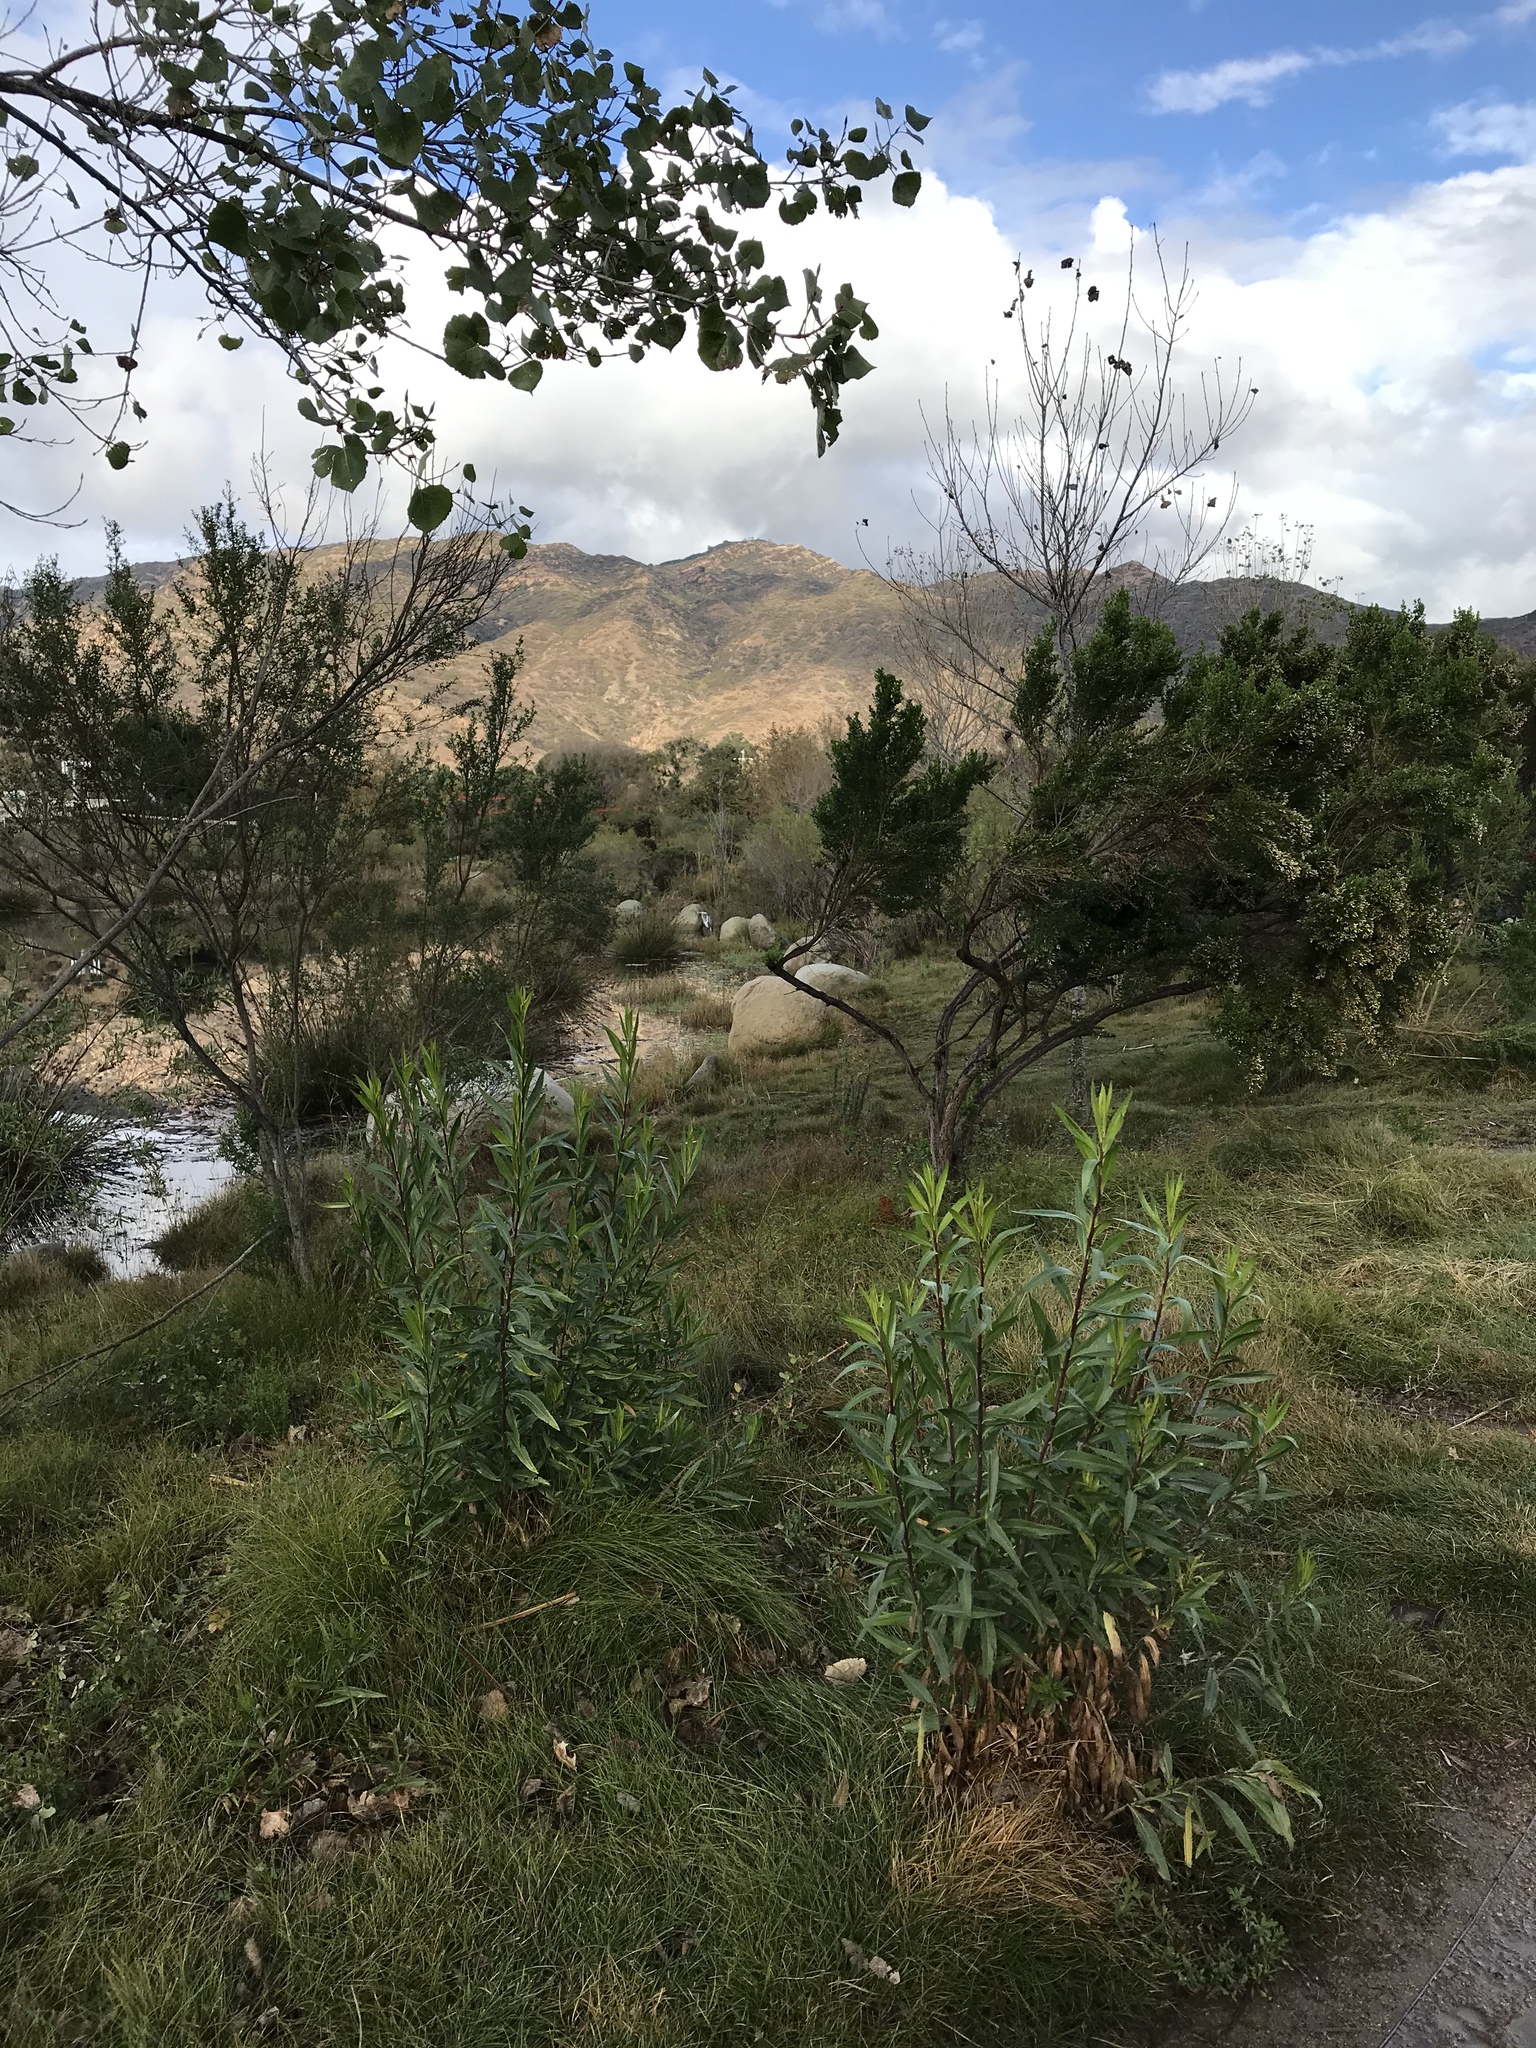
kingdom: Animalia
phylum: Chordata
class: Aves
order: Pelecaniformes
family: Ardeidae
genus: Ardea
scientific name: Ardea herodias
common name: Great blue heron
